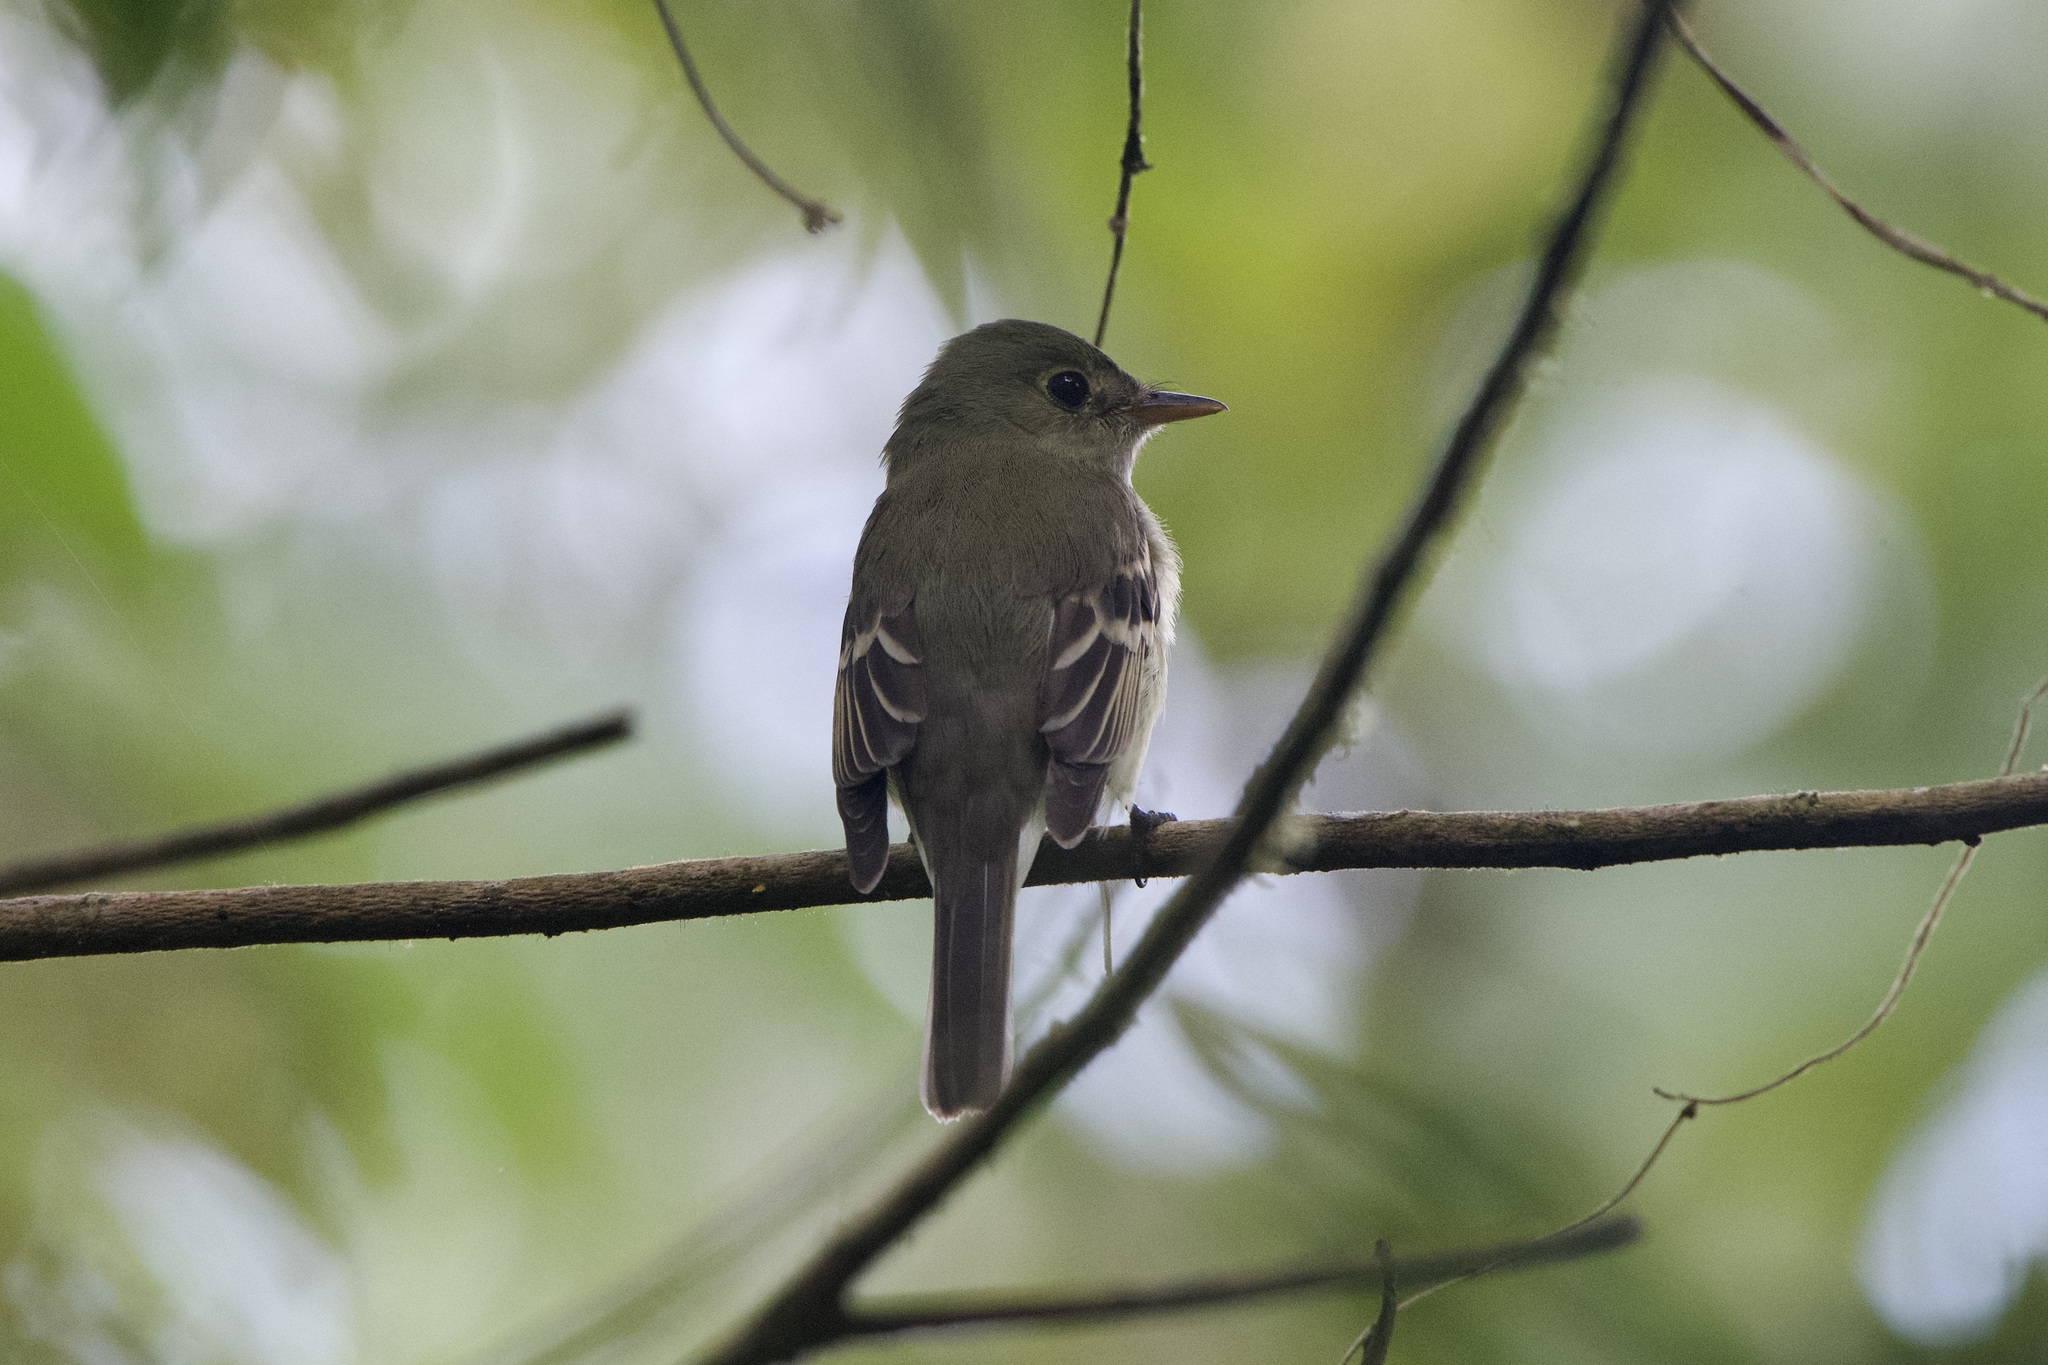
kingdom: Animalia
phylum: Chordata
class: Aves
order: Passeriformes
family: Tyrannidae
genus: Empidonax
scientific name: Empidonax virescens
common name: Acadian flycatcher
